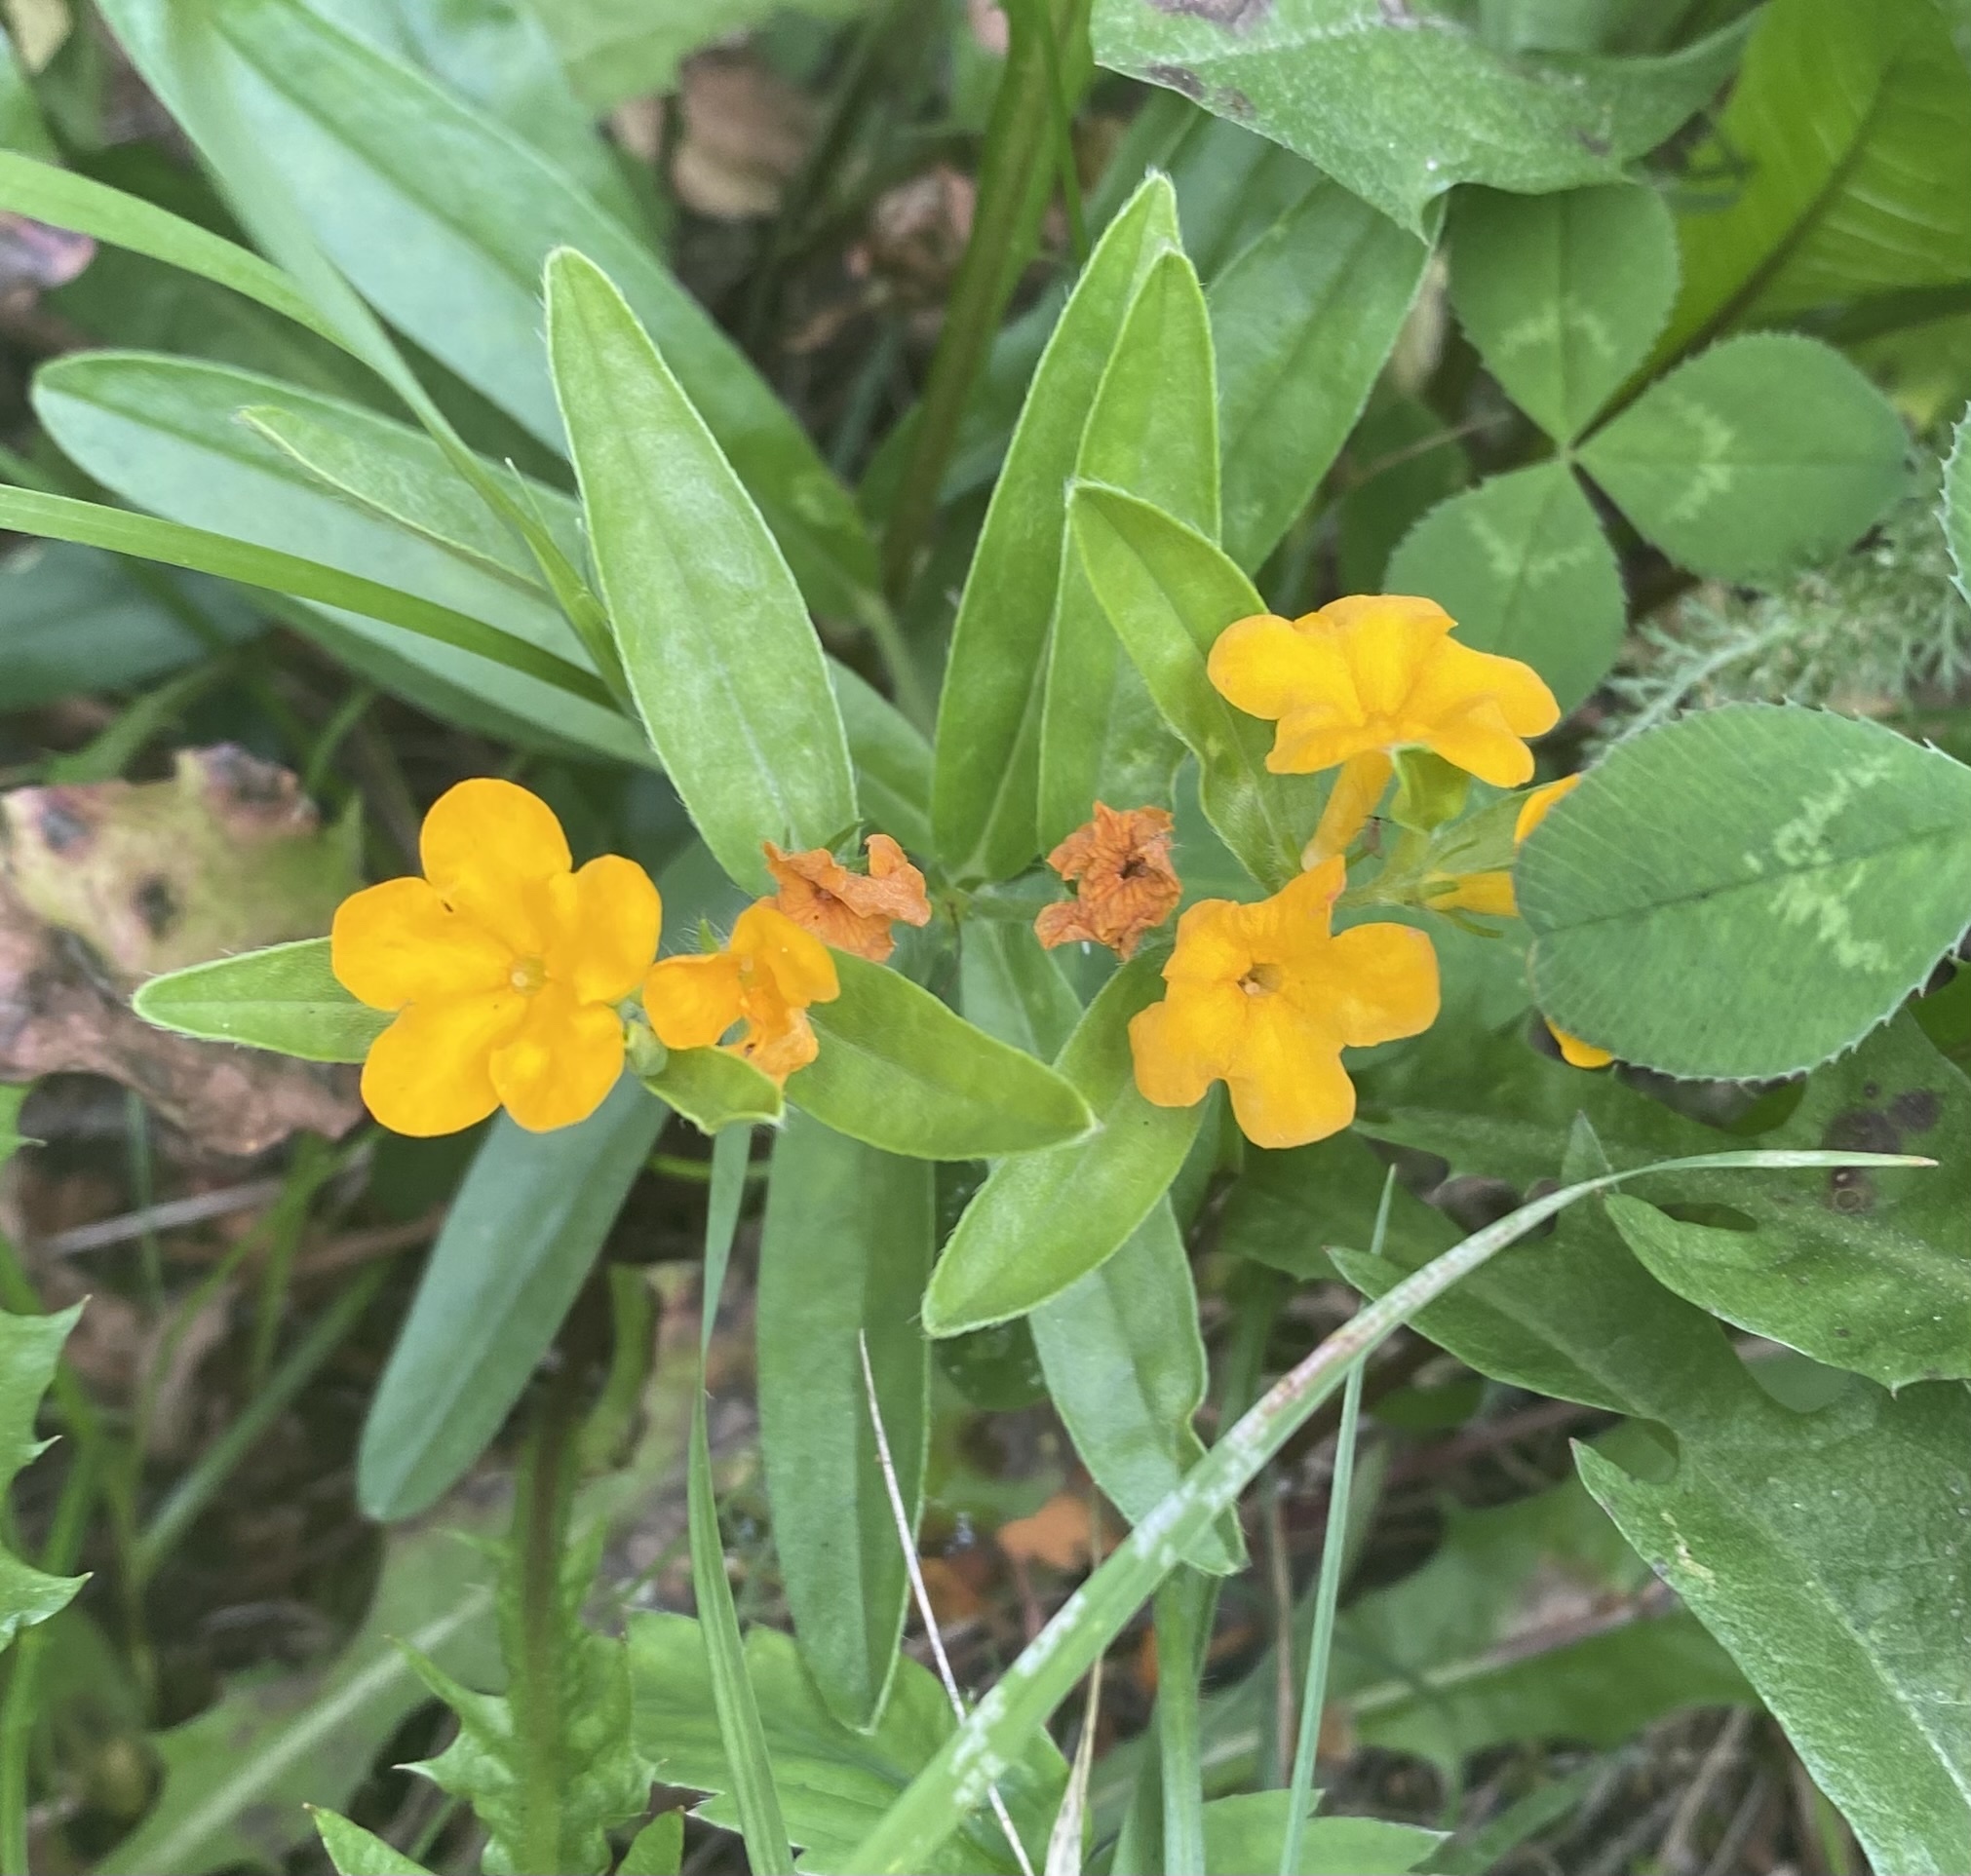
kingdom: Plantae
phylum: Tracheophyta
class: Magnoliopsida
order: Boraginales
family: Boraginaceae
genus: Lithospermum
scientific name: Lithospermum canescens
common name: Hoary puccoon
